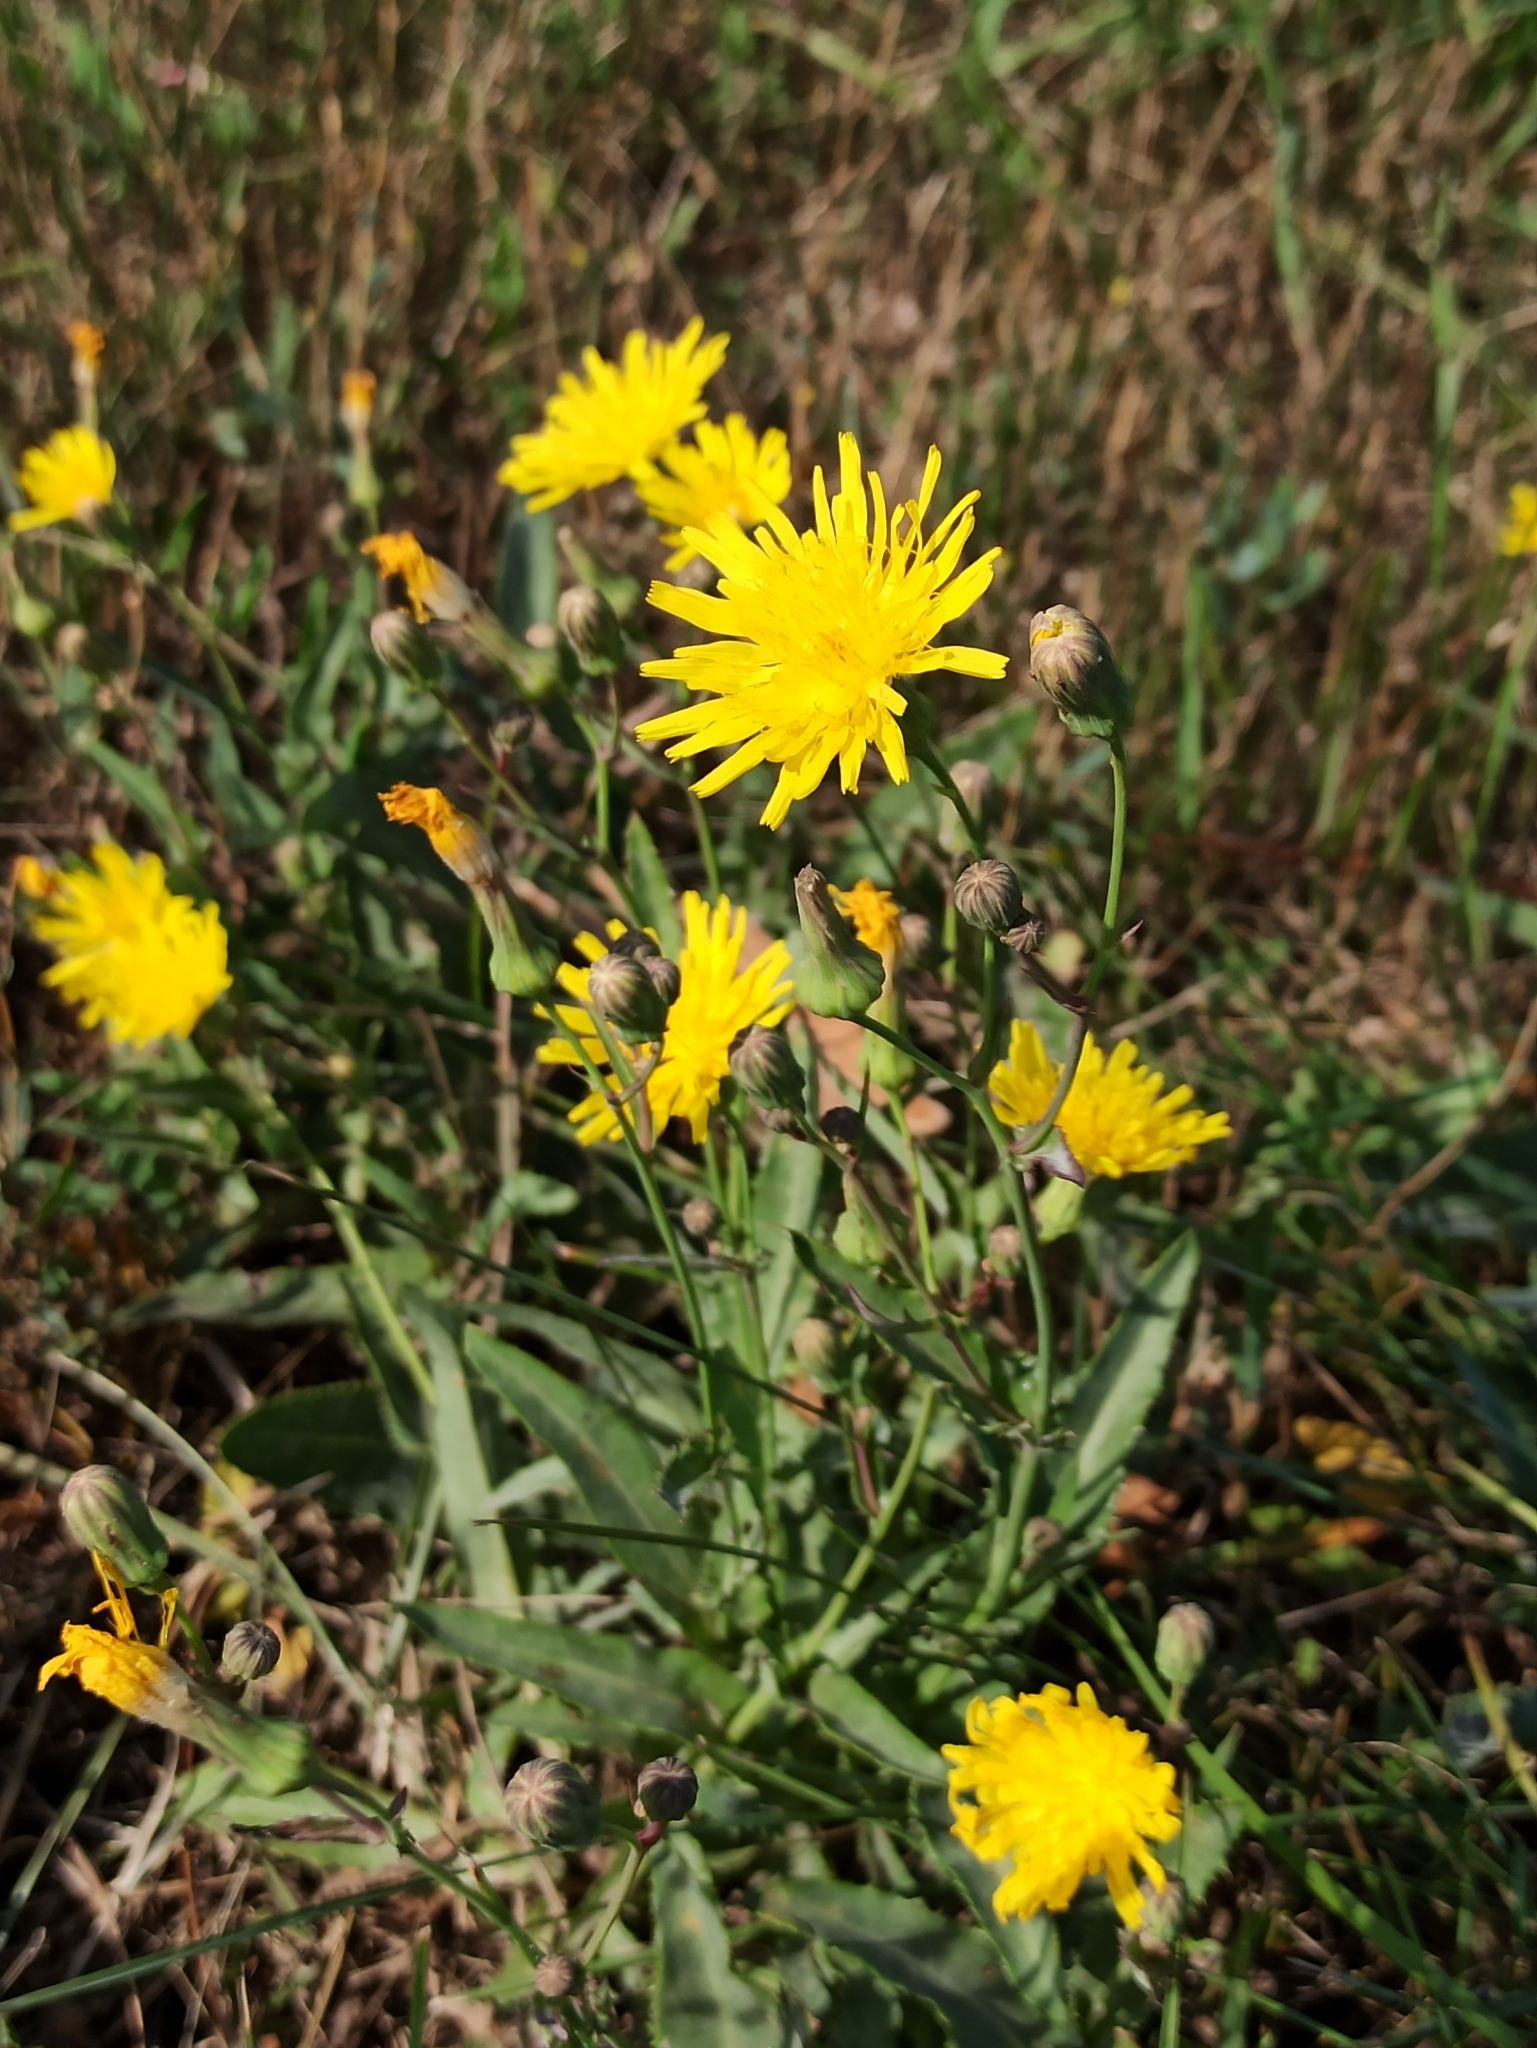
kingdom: Plantae
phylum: Tracheophyta
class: Magnoliopsida
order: Asterales
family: Asteraceae
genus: Sonchus
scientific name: Sonchus arvensis
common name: Perennial sow-thistle
